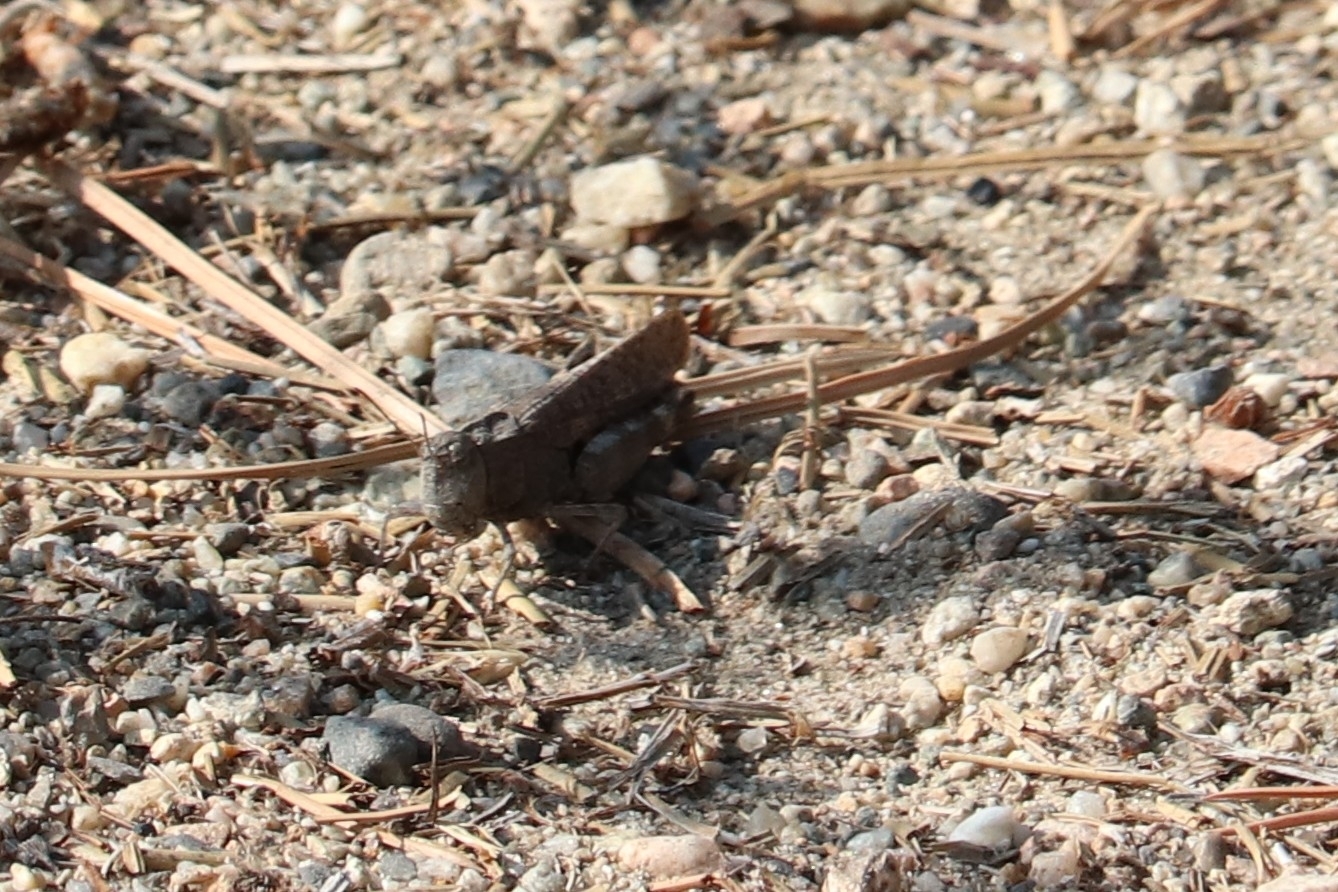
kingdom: Animalia
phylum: Arthropoda
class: Insecta
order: Orthoptera
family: Acrididae
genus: Dissosteira
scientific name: Dissosteira carolina
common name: Carolina grasshopper
